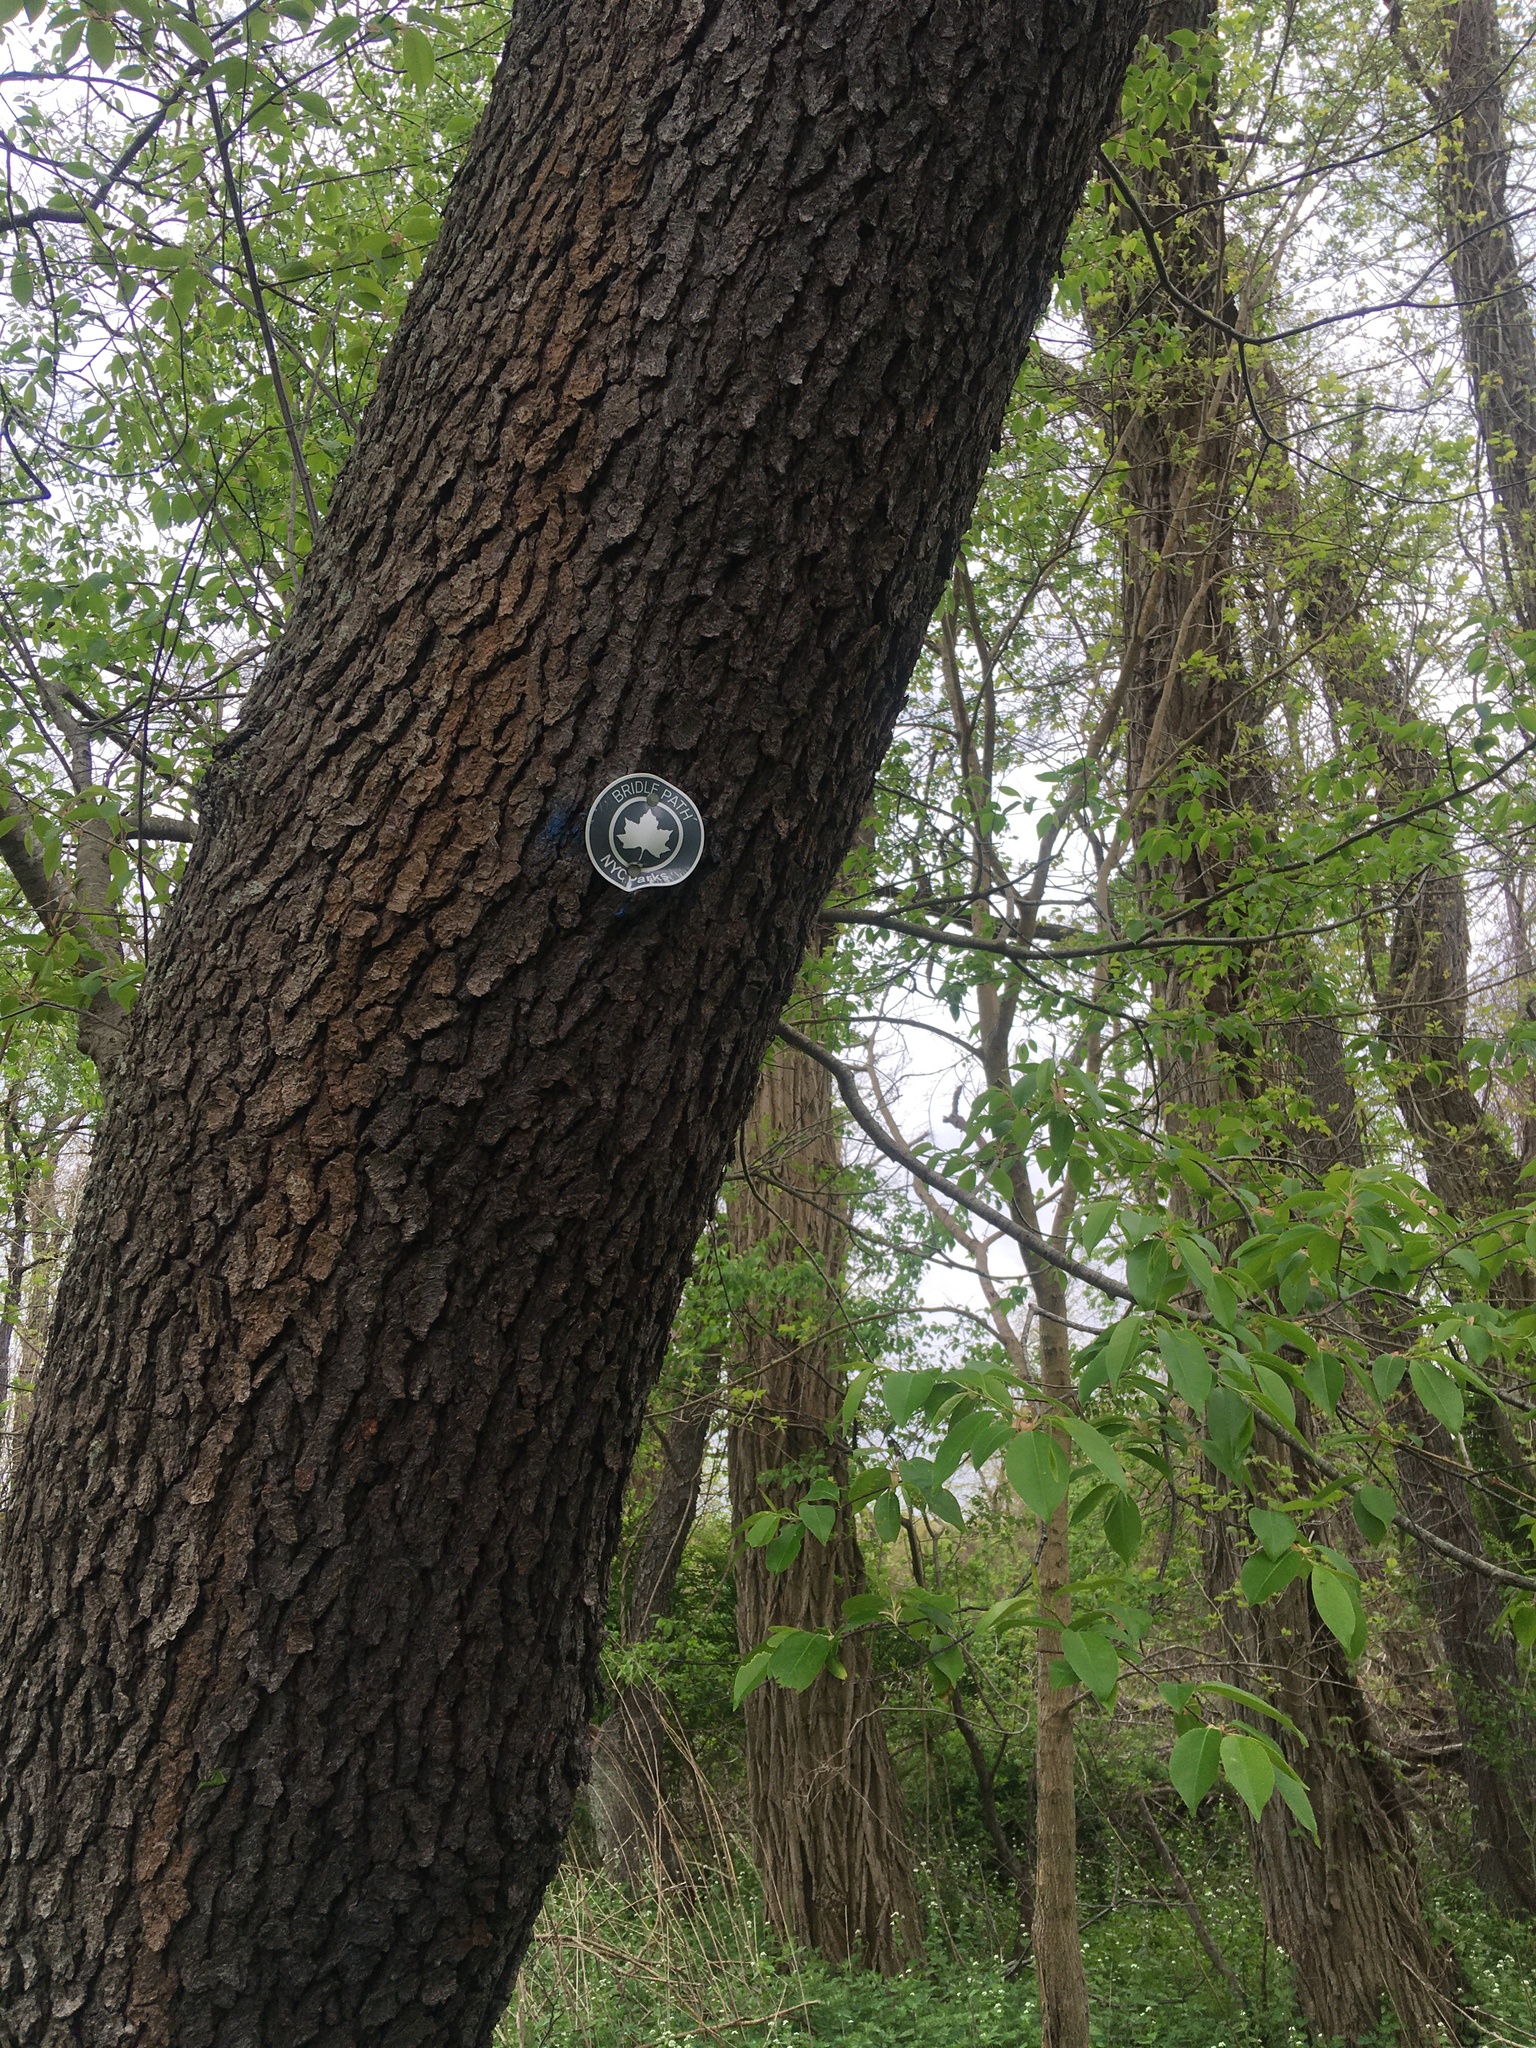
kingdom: Plantae
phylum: Tracheophyta
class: Magnoliopsida
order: Rosales
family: Rosaceae
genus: Prunus
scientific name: Prunus serotina
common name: Black cherry
